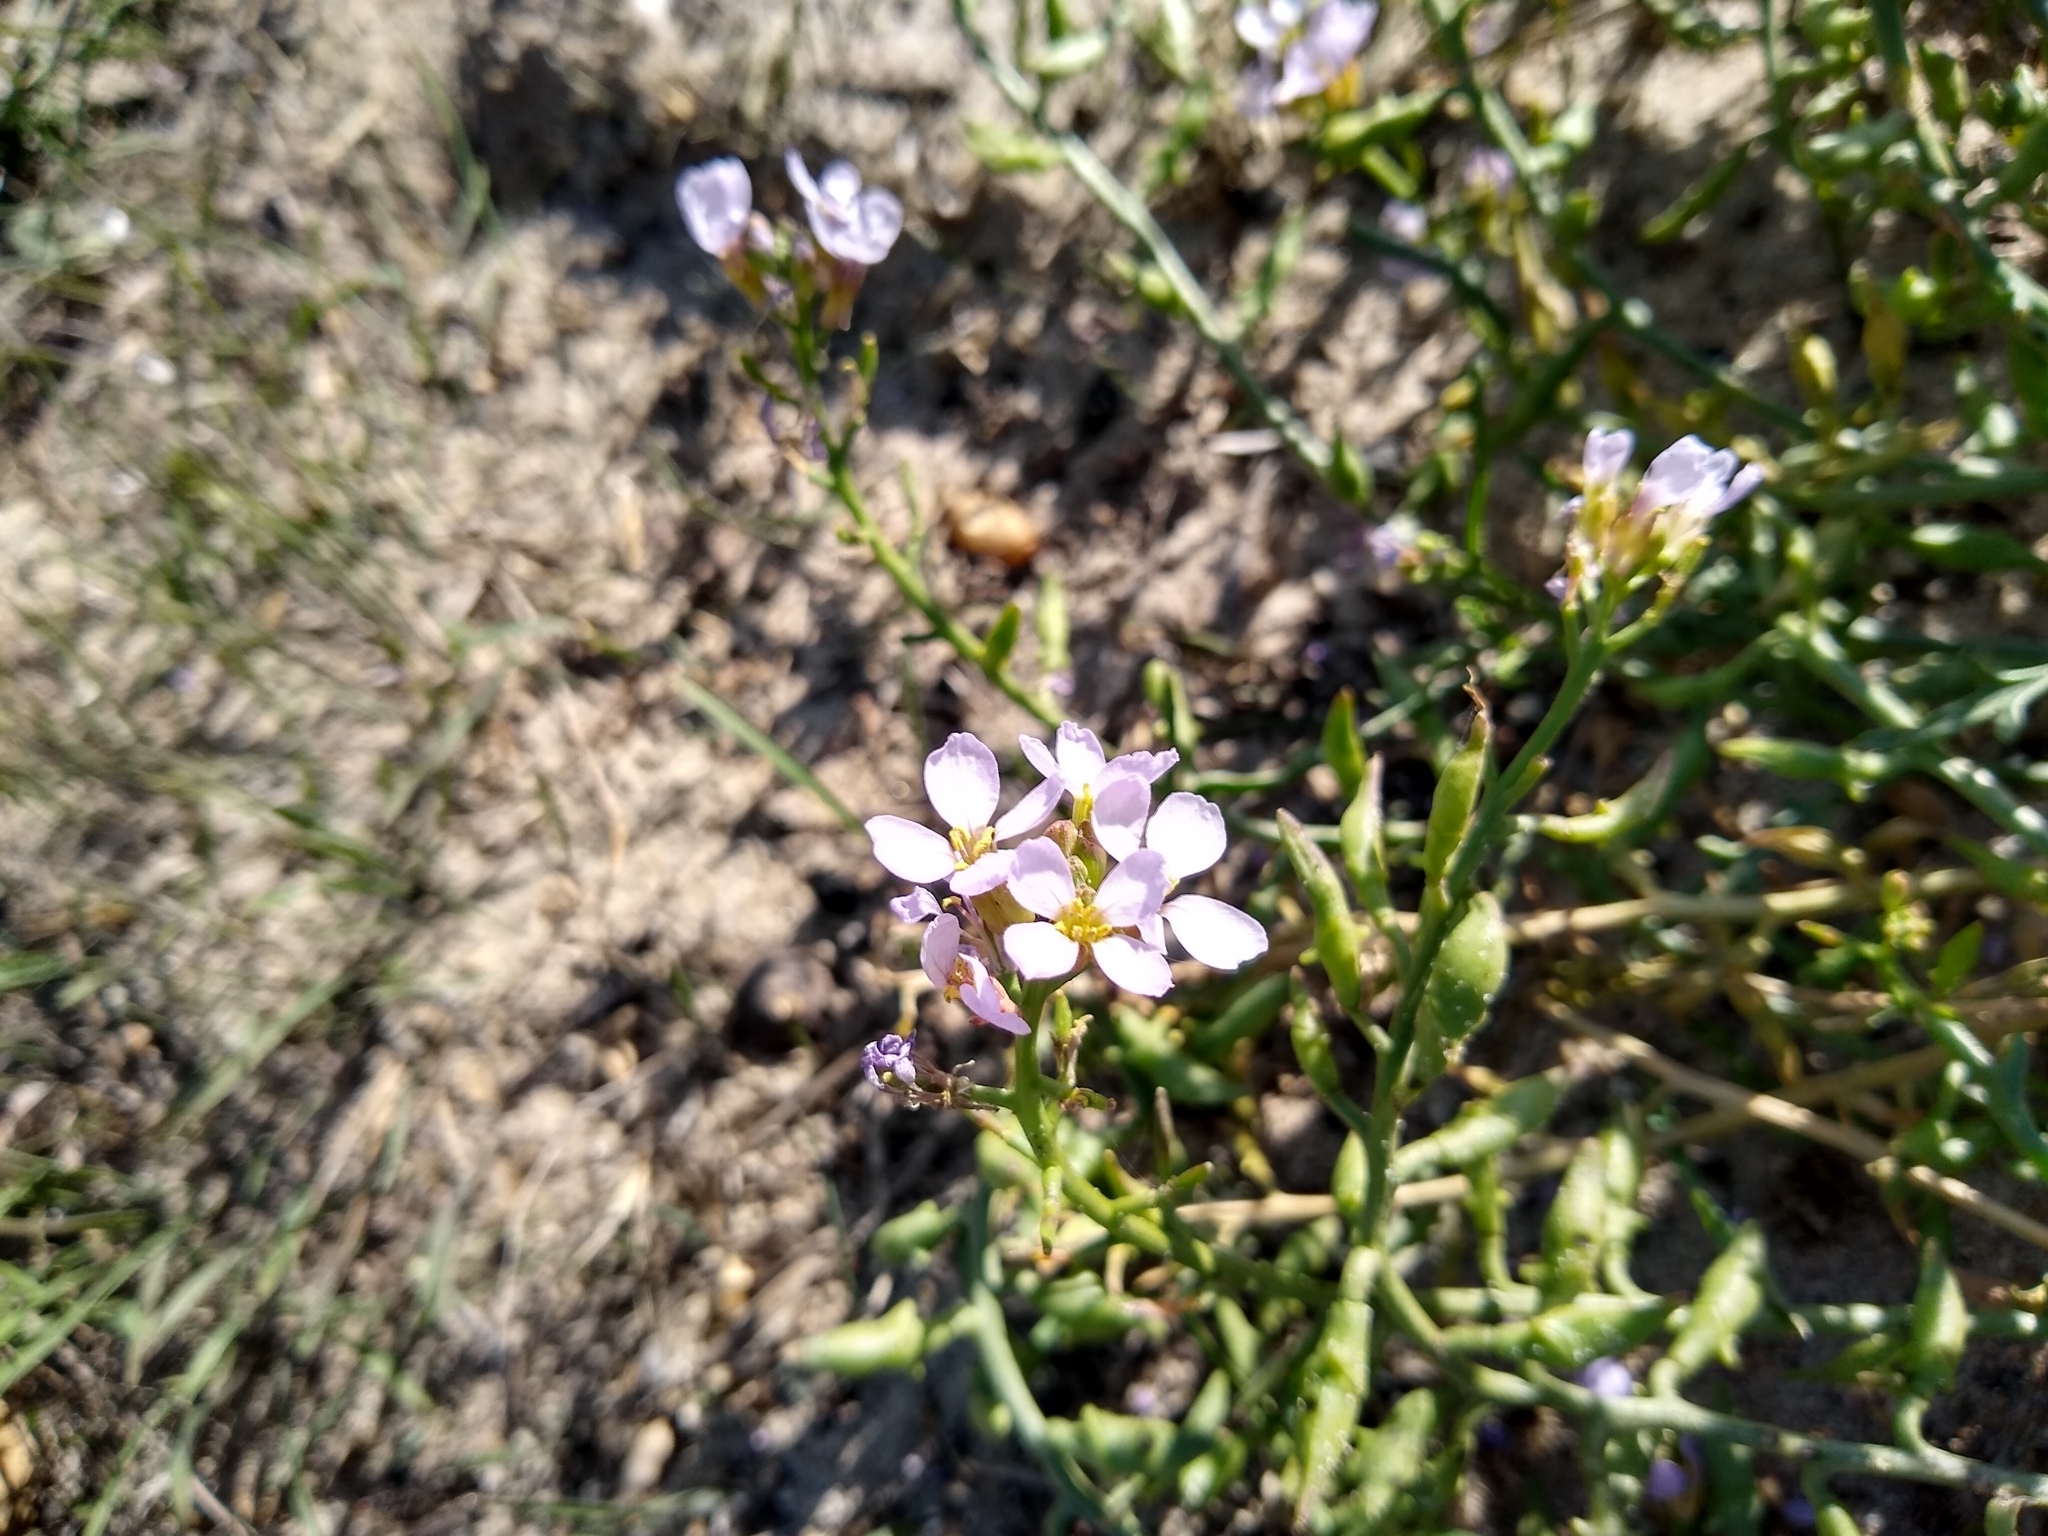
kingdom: Plantae
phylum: Tracheophyta
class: Magnoliopsida
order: Brassicales
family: Brassicaceae
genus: Cakile
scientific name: Cakile maritima
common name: Sea rocket
